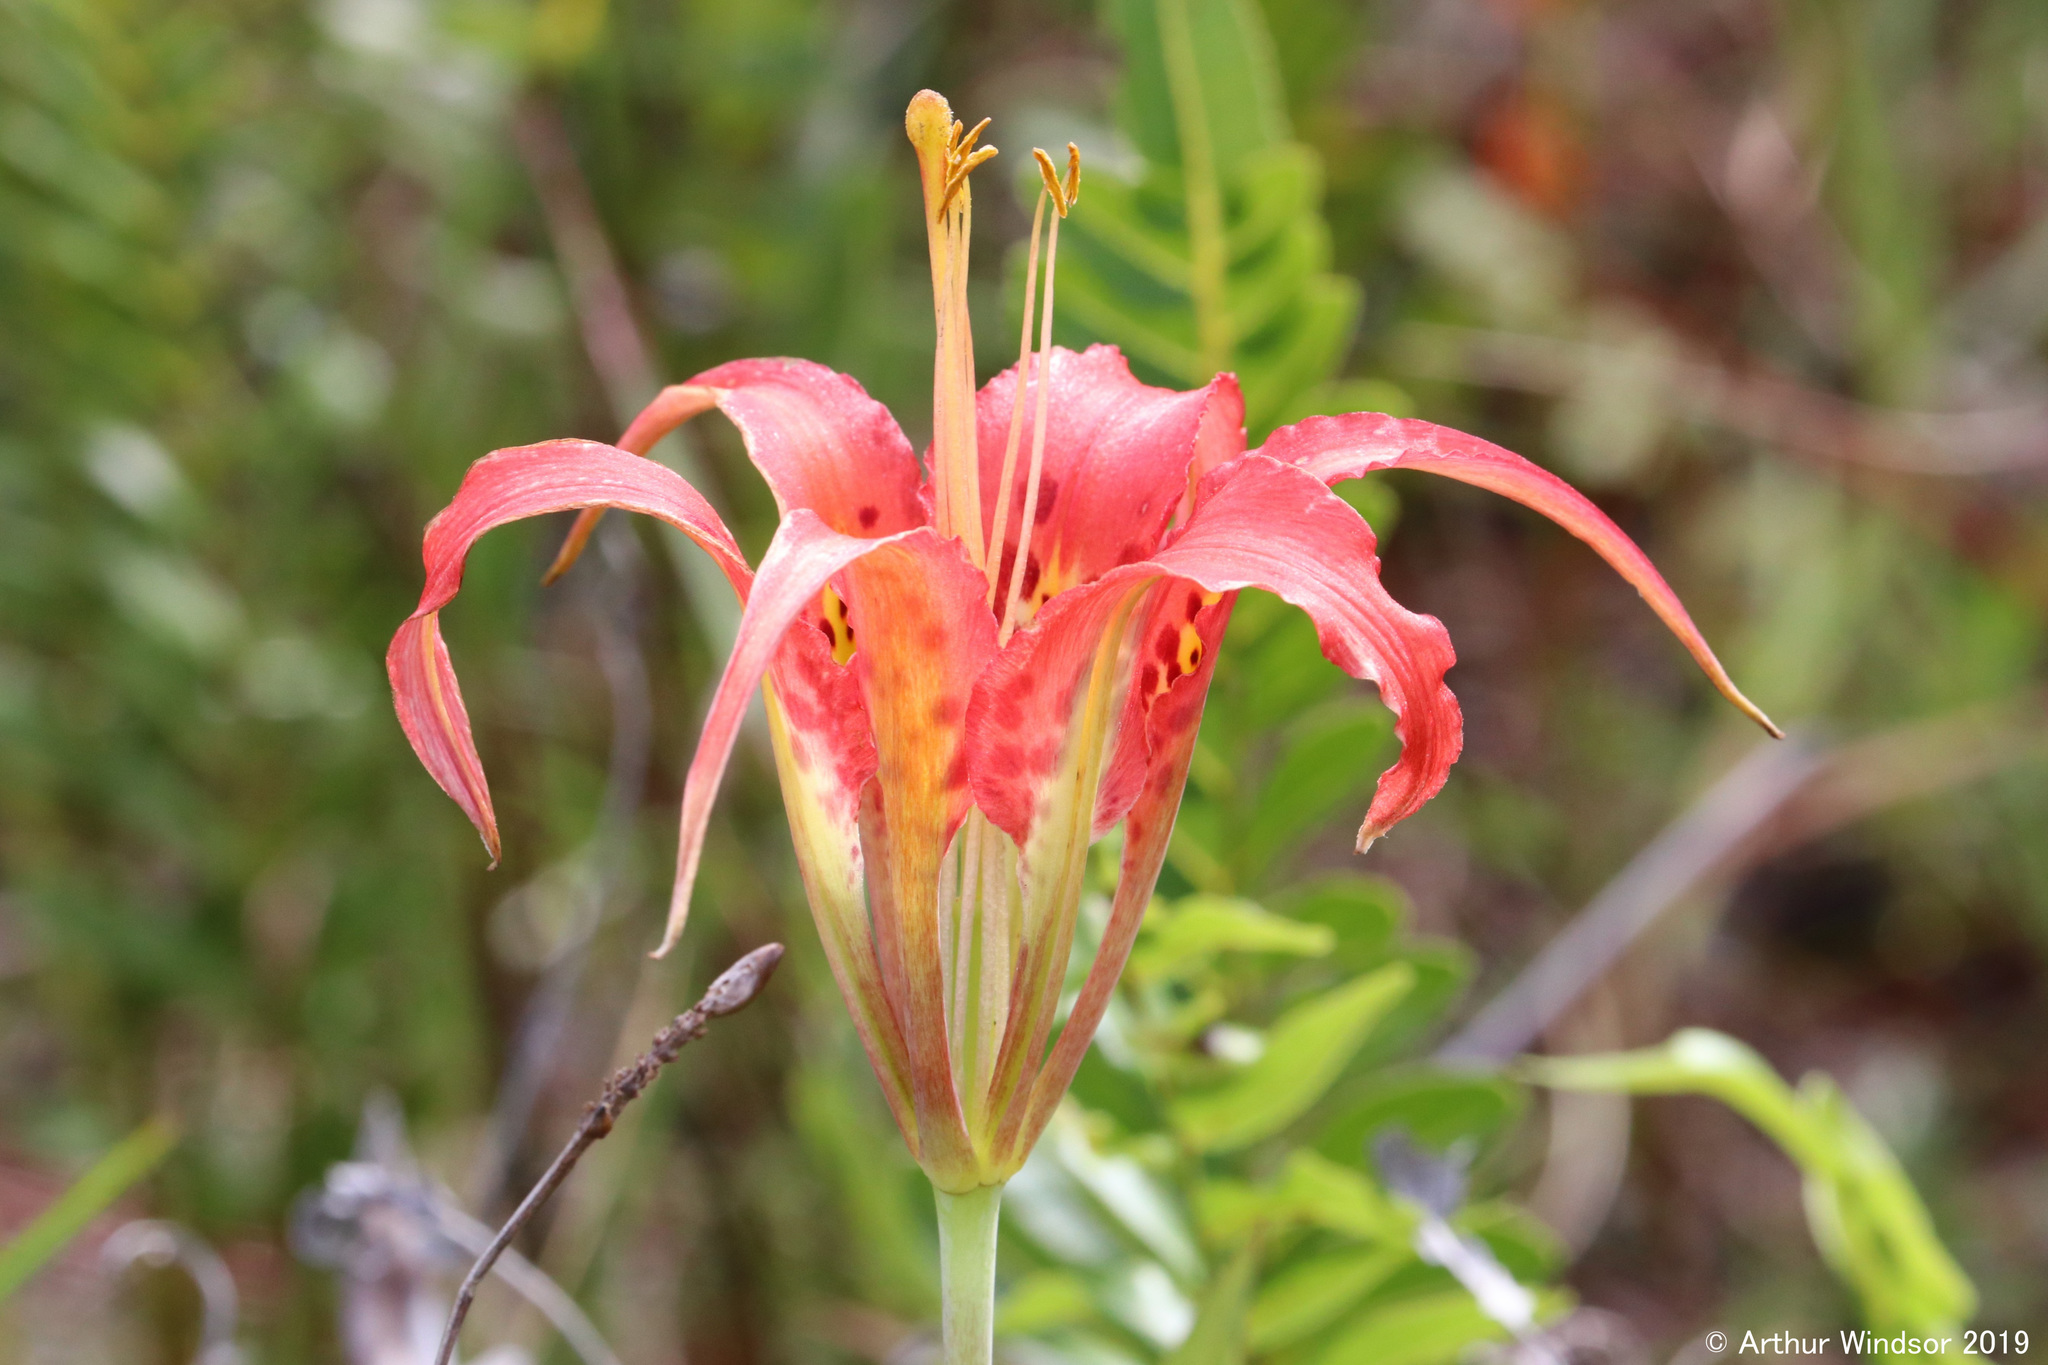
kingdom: Plantae
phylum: Tracheophyta
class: Liliopsida
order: Liliales
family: Liliaceae
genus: Lilium
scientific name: Lilium catesbaei
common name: Catesby's lily
